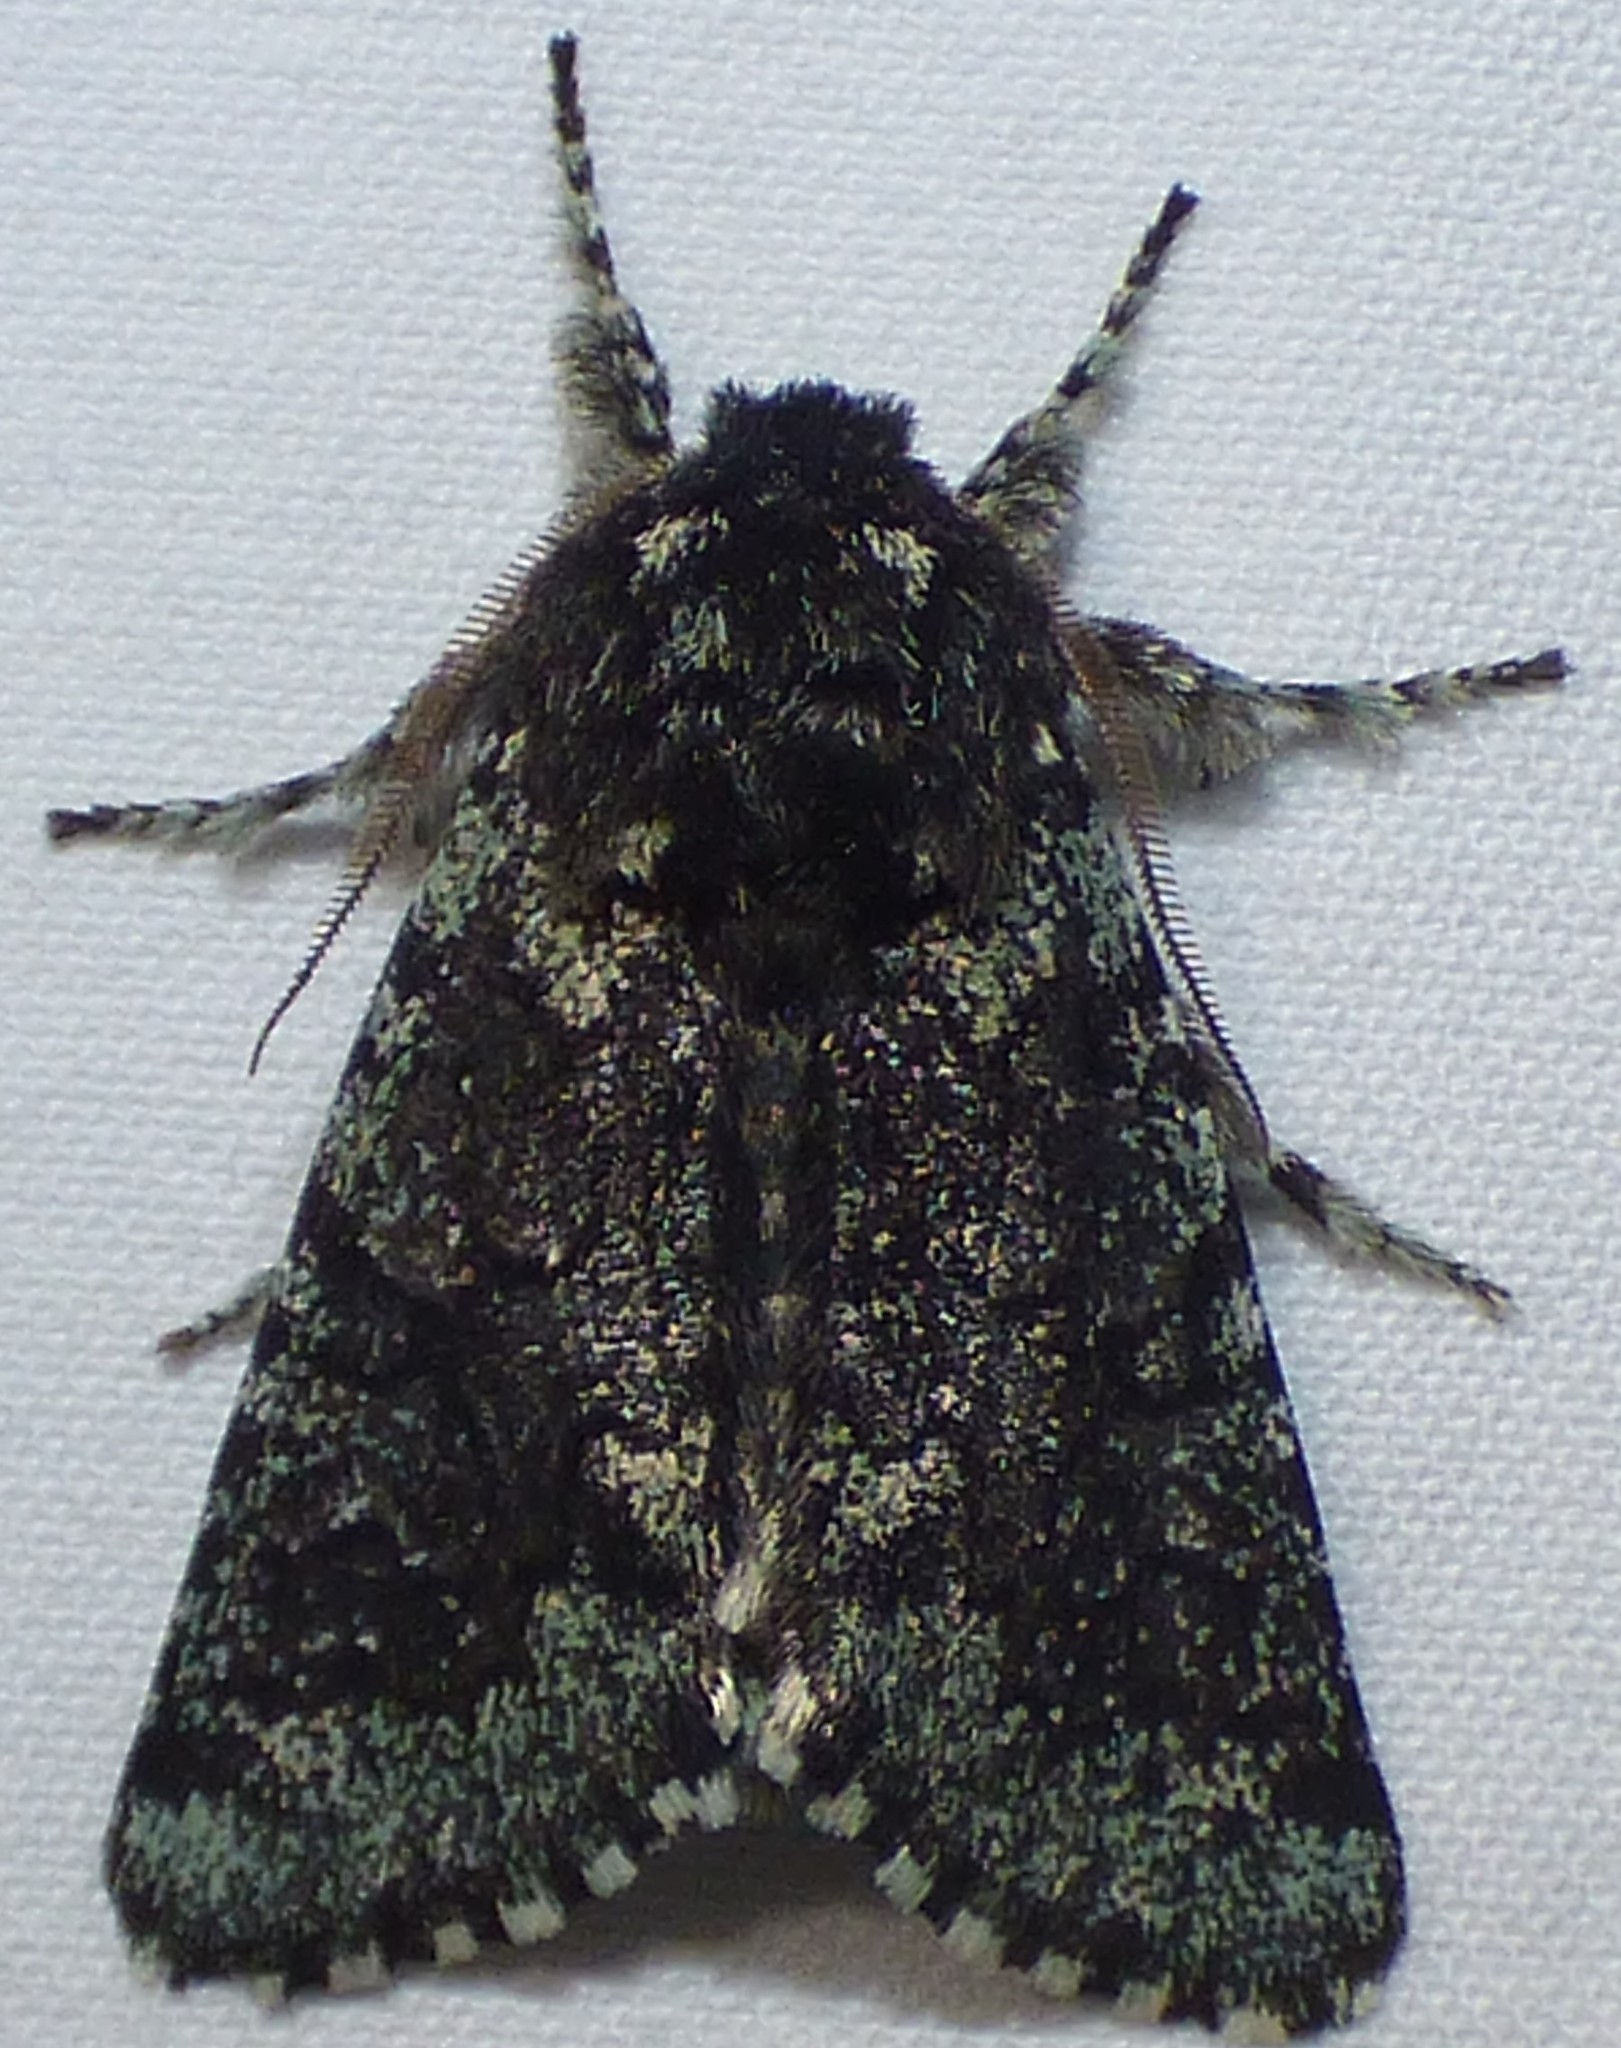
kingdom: Animalia
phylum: Arthropoda
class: Insecta
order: Lepidoptera
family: Noctuidae
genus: Feralia
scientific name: Feralia major
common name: Major sallow
